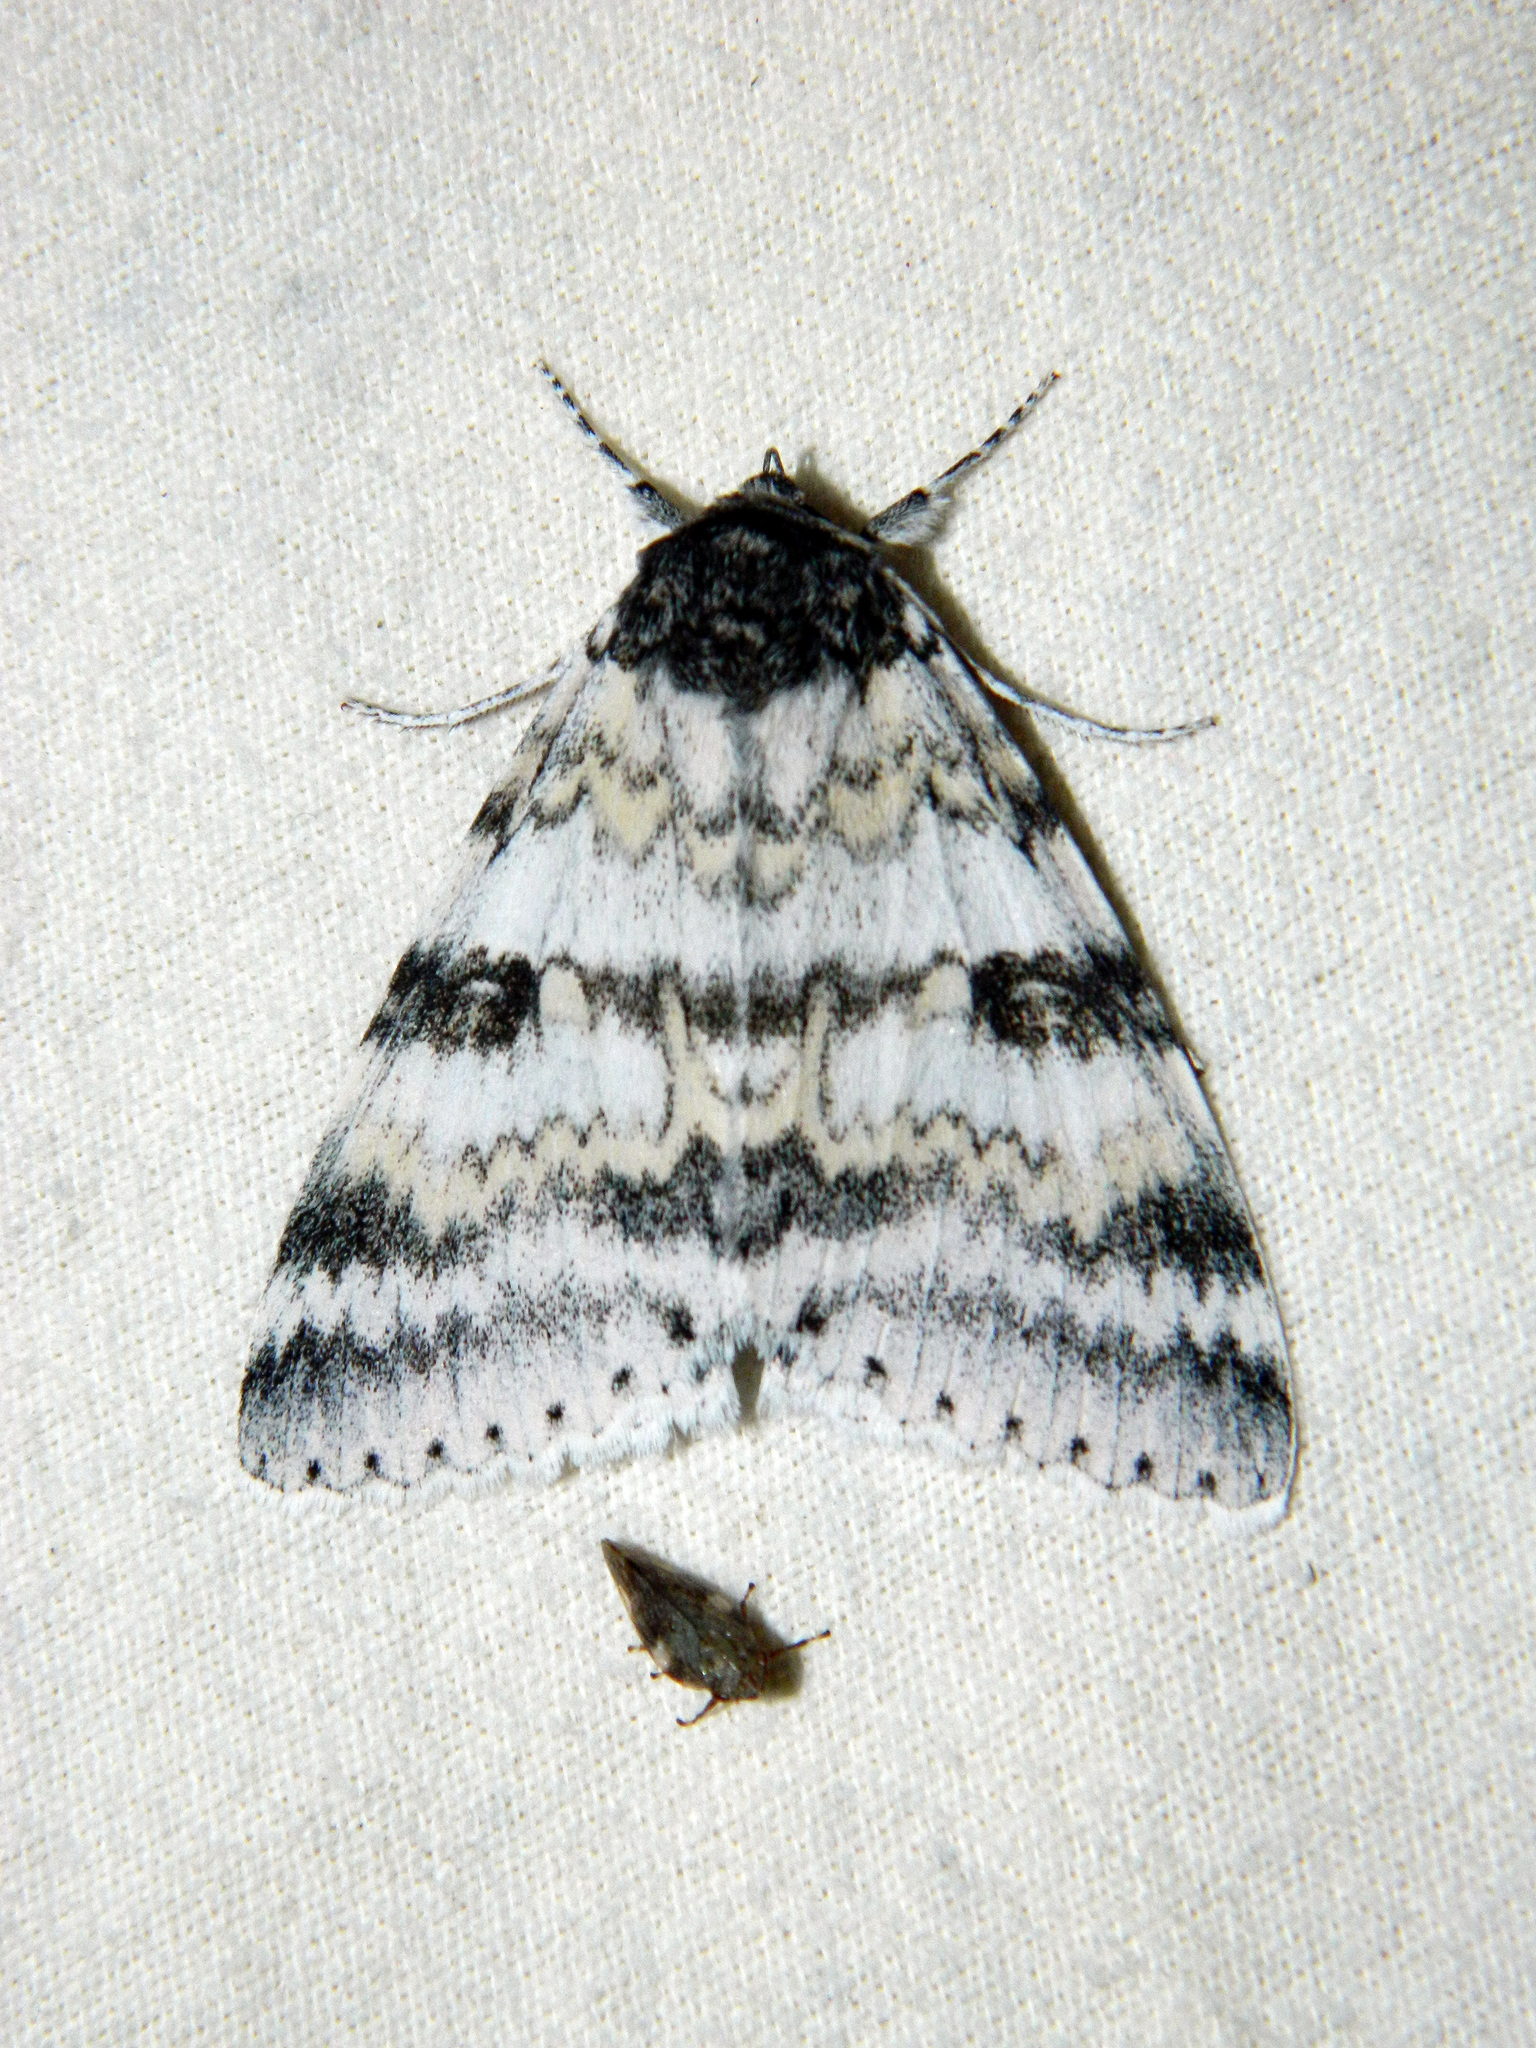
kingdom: Animalia
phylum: Arthropoda
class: Insecta
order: Lepidoptera
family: Erebidae
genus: Catocala
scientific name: Catocala relicta
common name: White underwing
